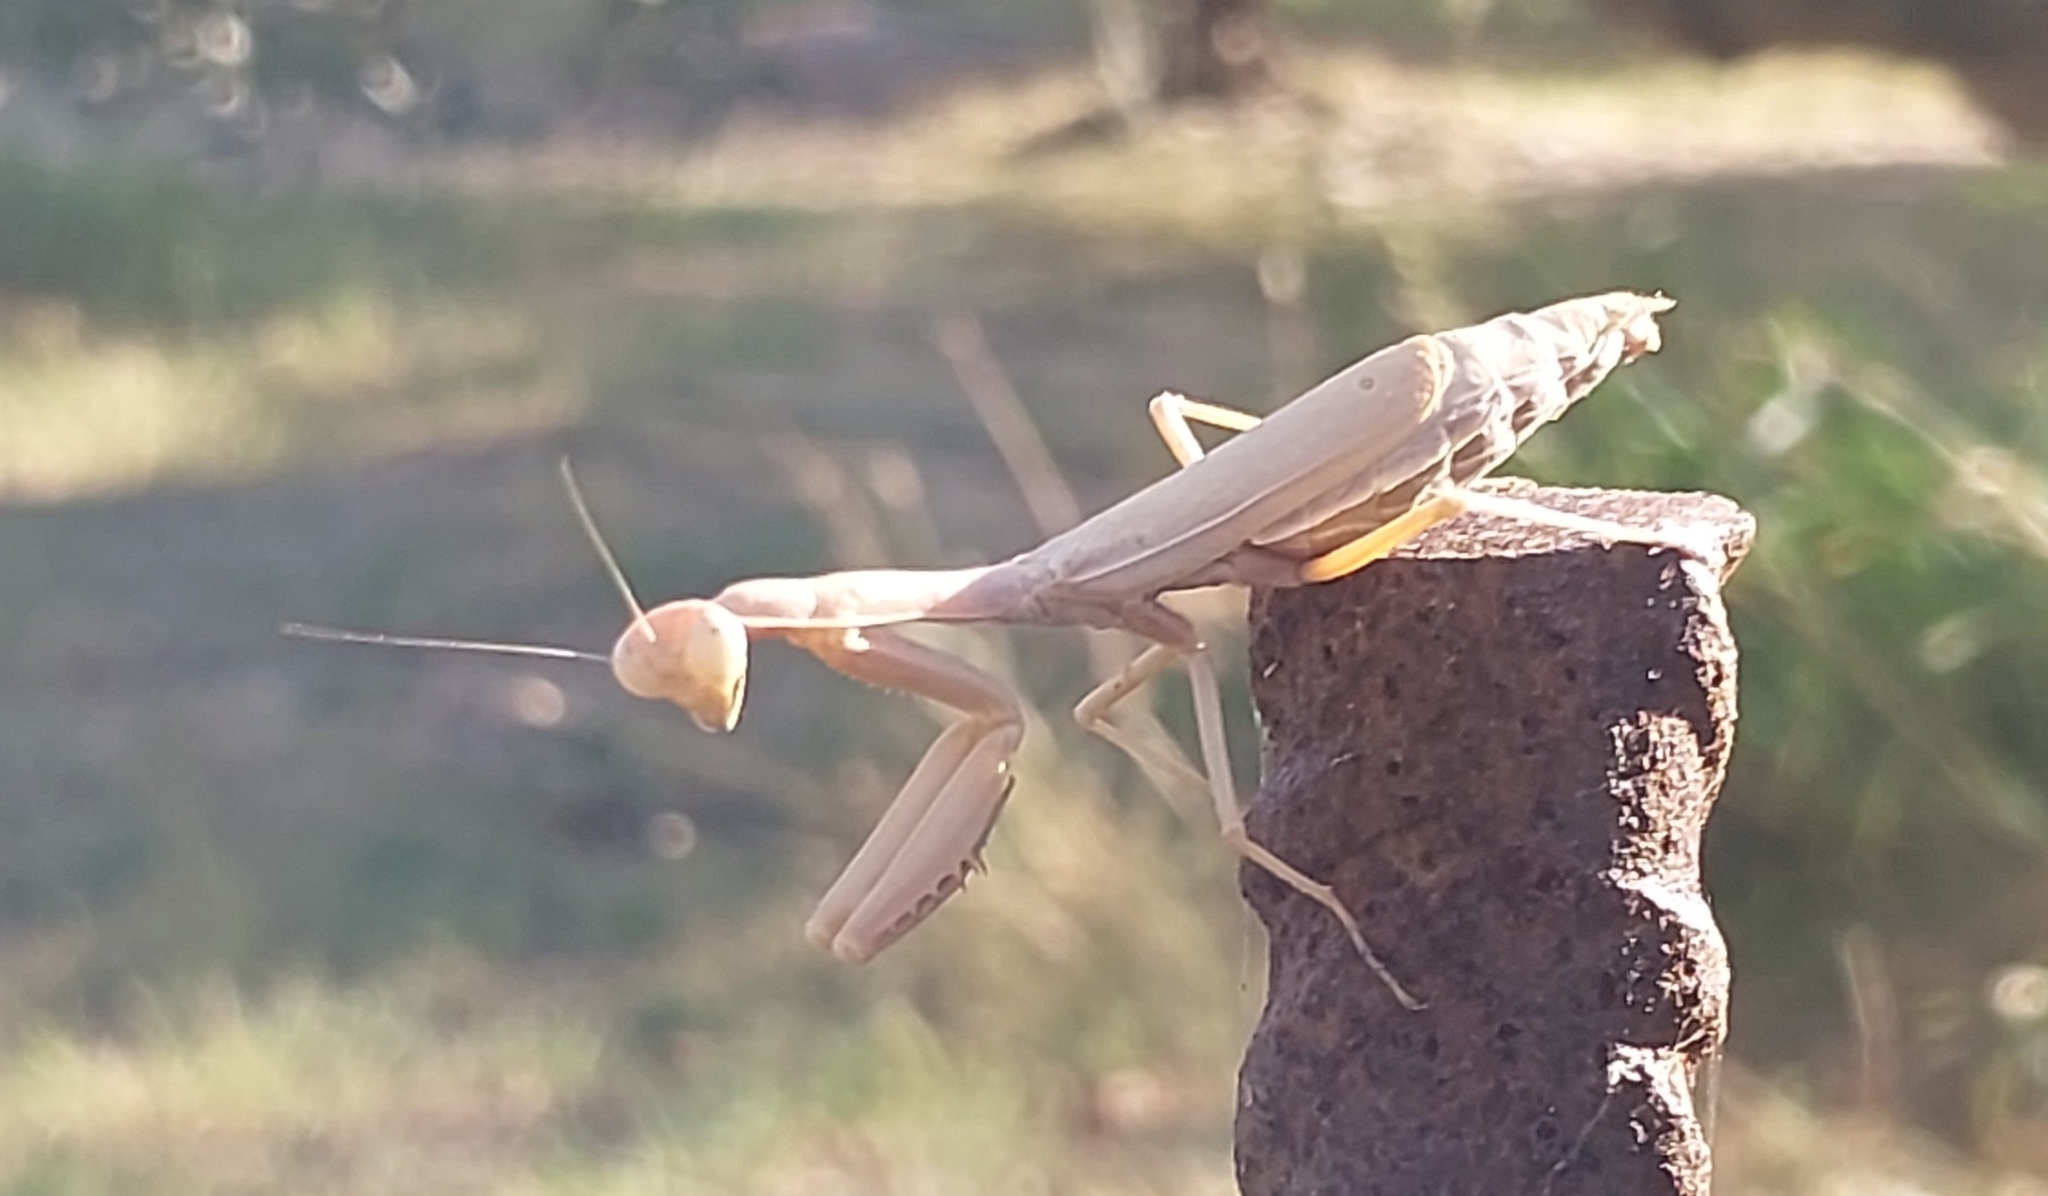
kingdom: Animalia
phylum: Arthropoda
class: Insecta
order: Mantodea
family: Eremiaphilidae
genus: Iris
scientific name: Iris oratoria
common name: Mediterranean mantis
